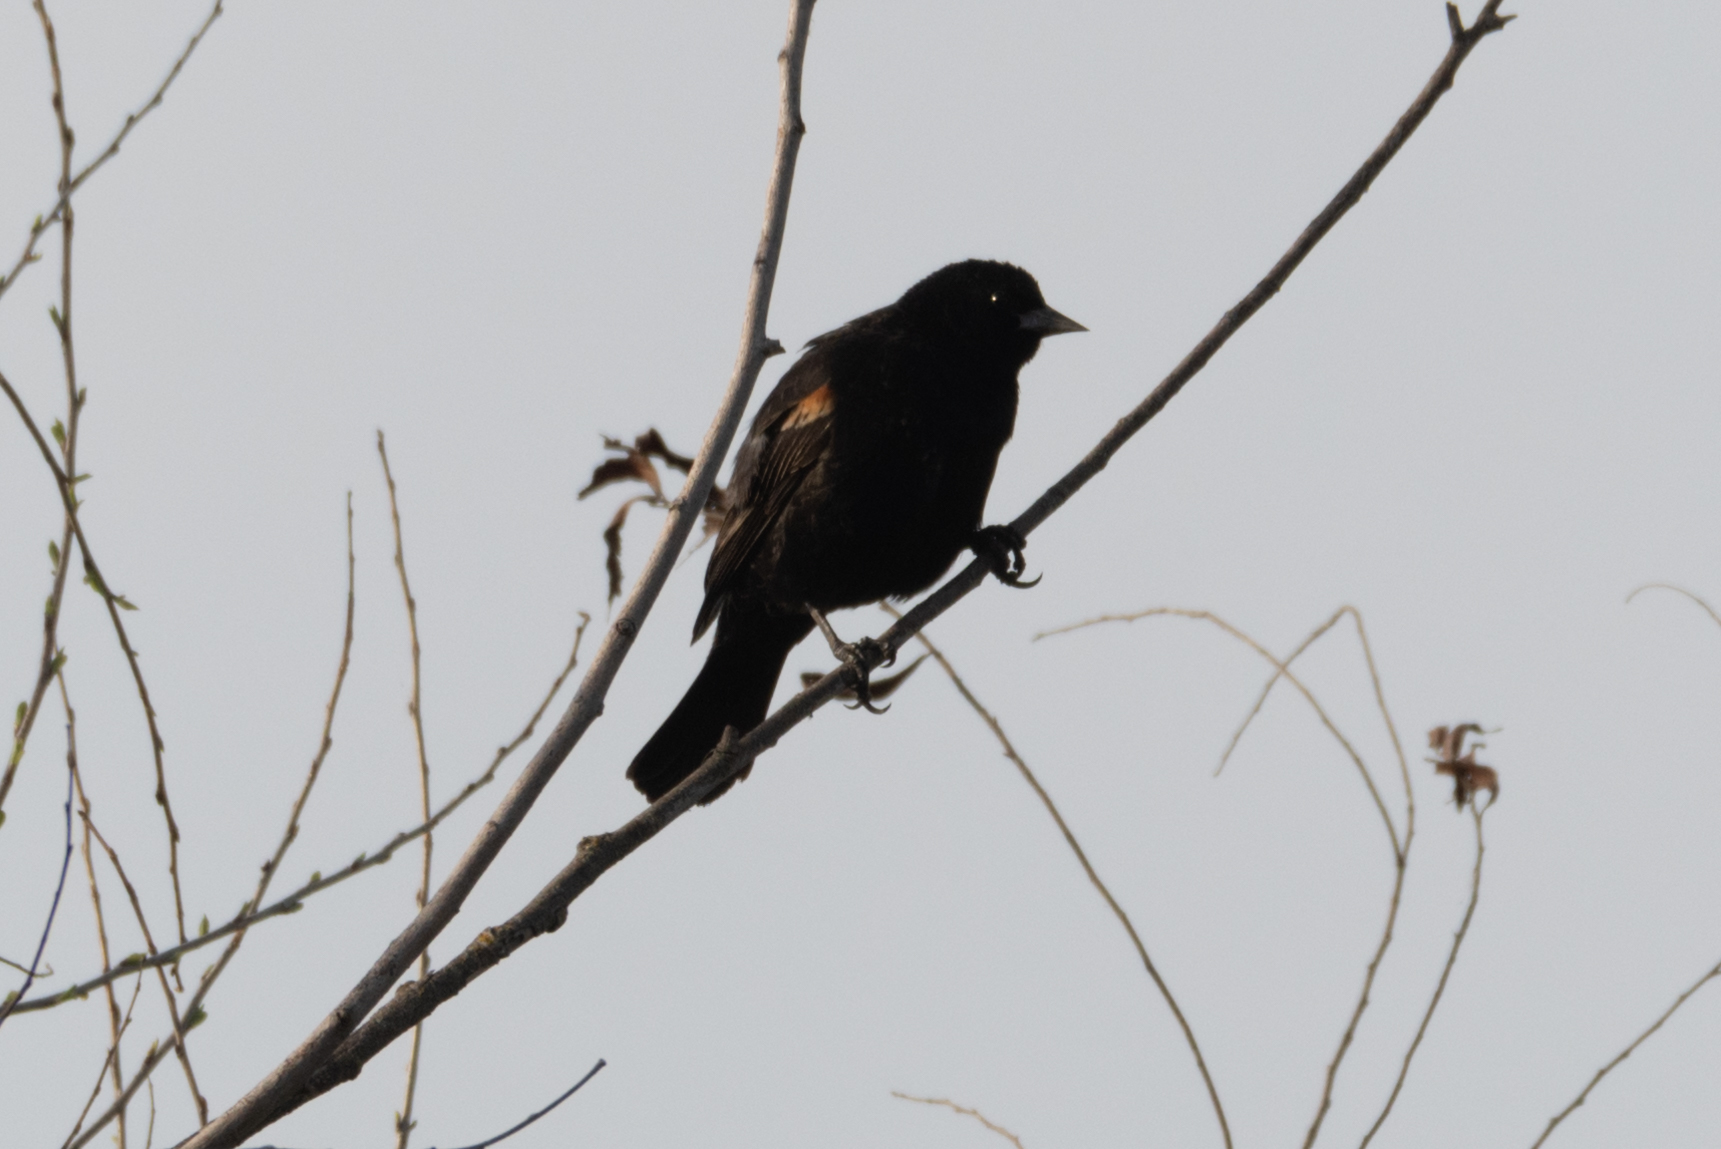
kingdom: Animalia
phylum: Chordata
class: Aves
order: Passeriformes
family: Icteridae
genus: Agelaius
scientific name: Agelaius phoeniceus
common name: Red-winged blackbird
